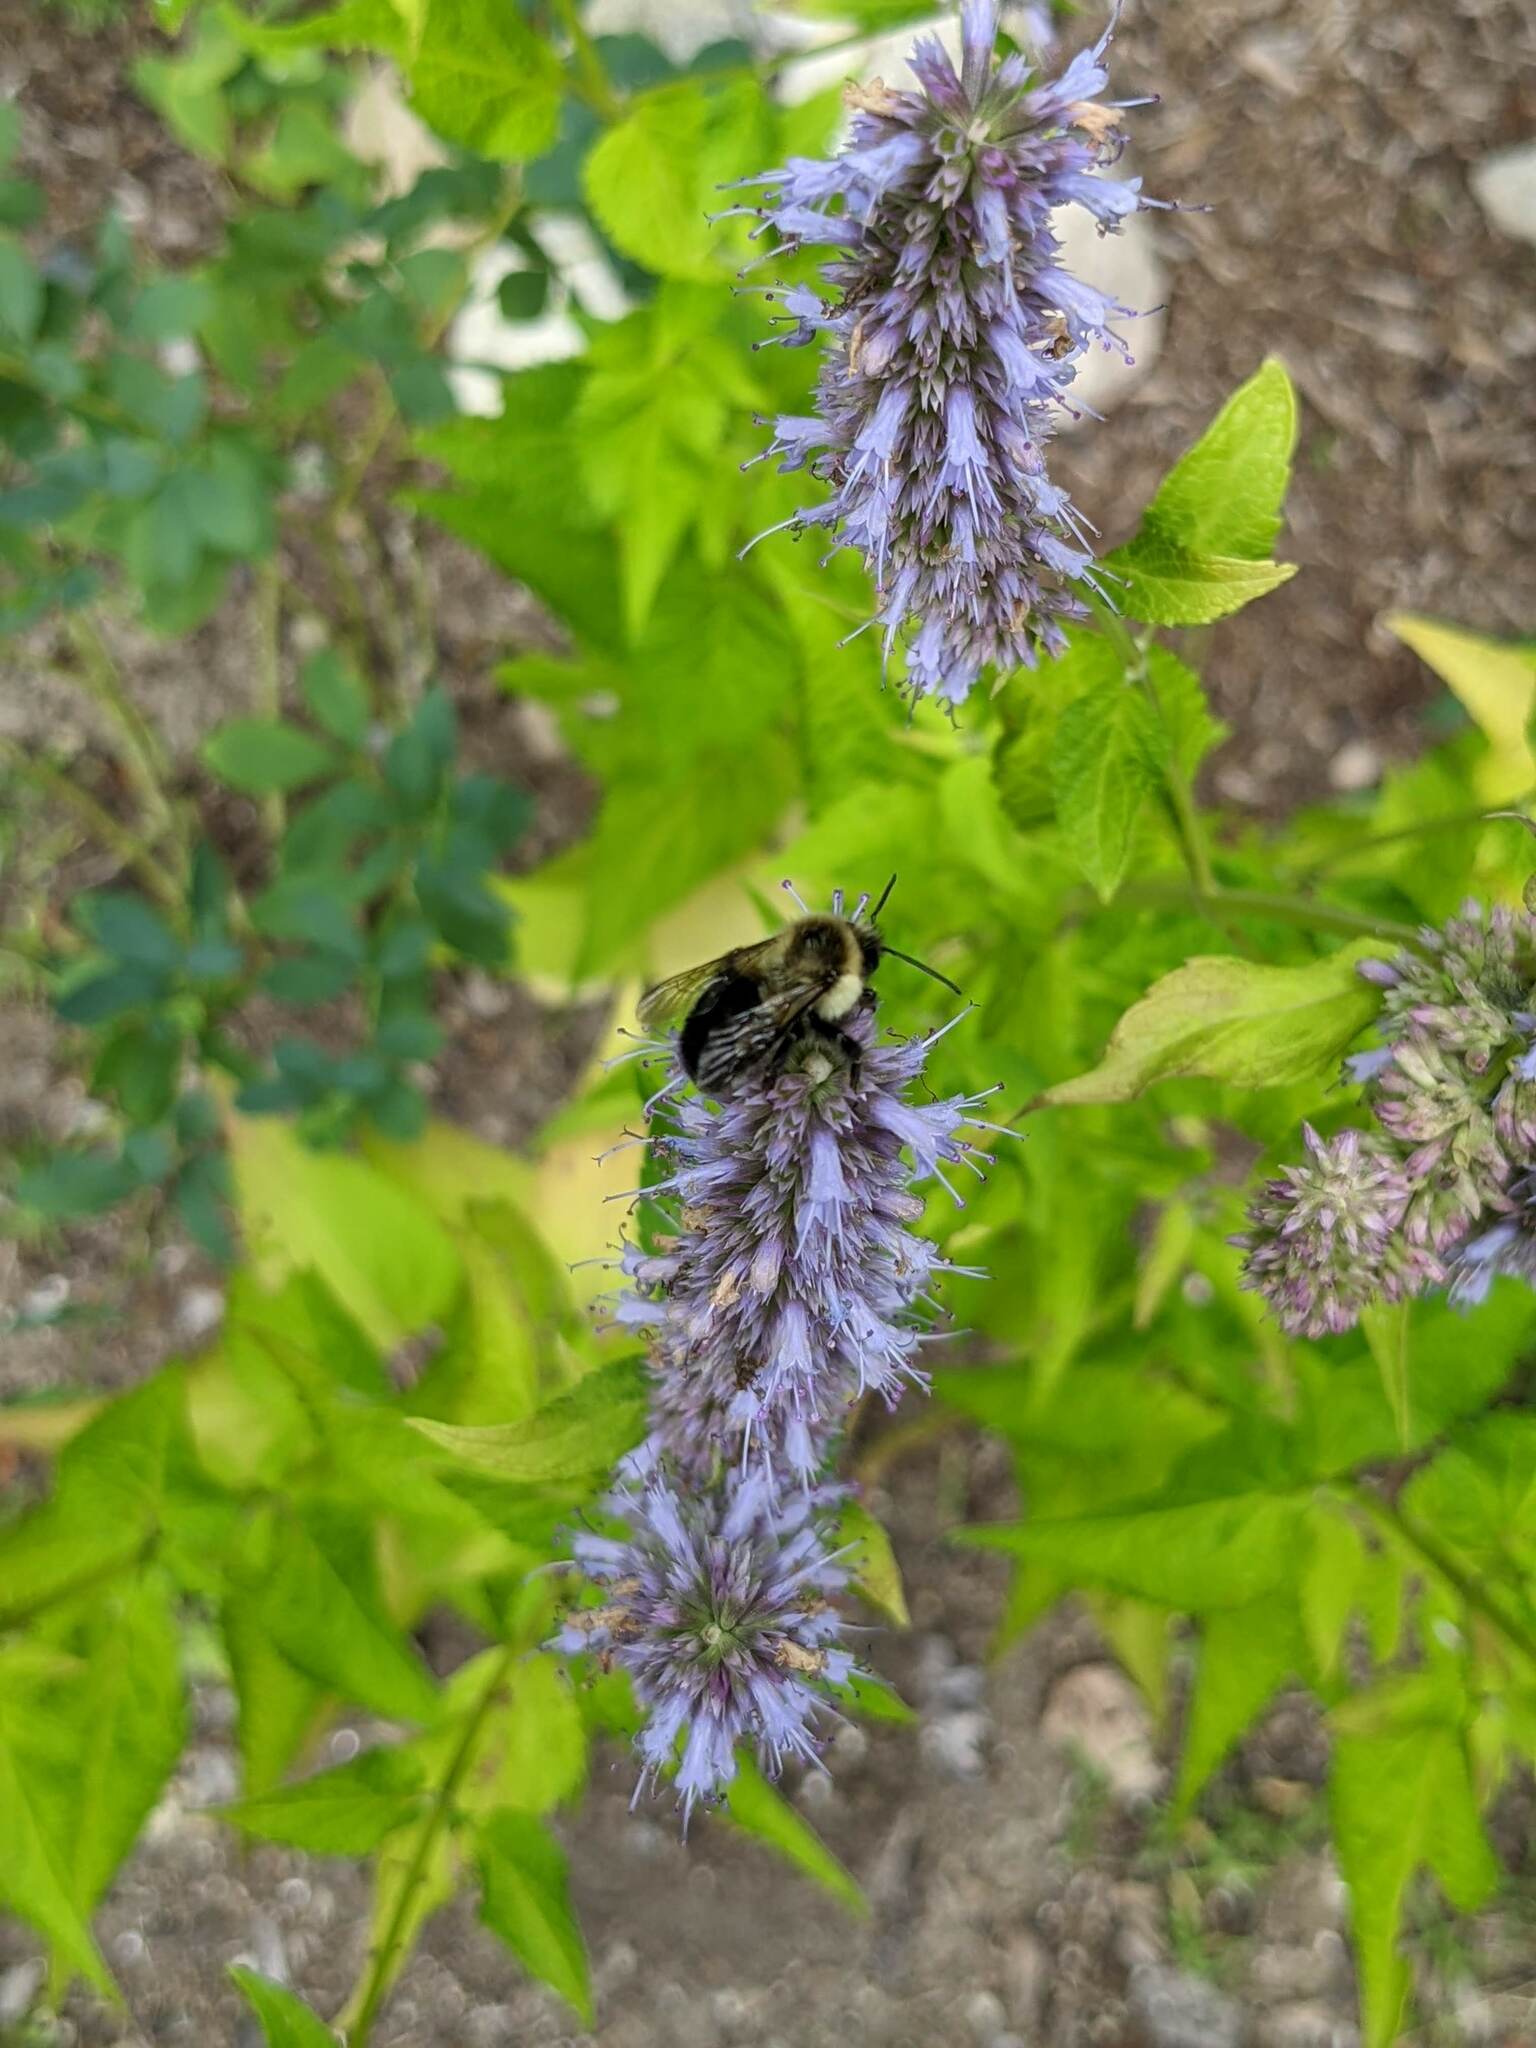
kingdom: Animalia
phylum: Arthropoda
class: Insecta
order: Hymenoptera
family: Apidae
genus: Bombus
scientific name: Bombus impatiens
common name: Common eastern bumble bee
